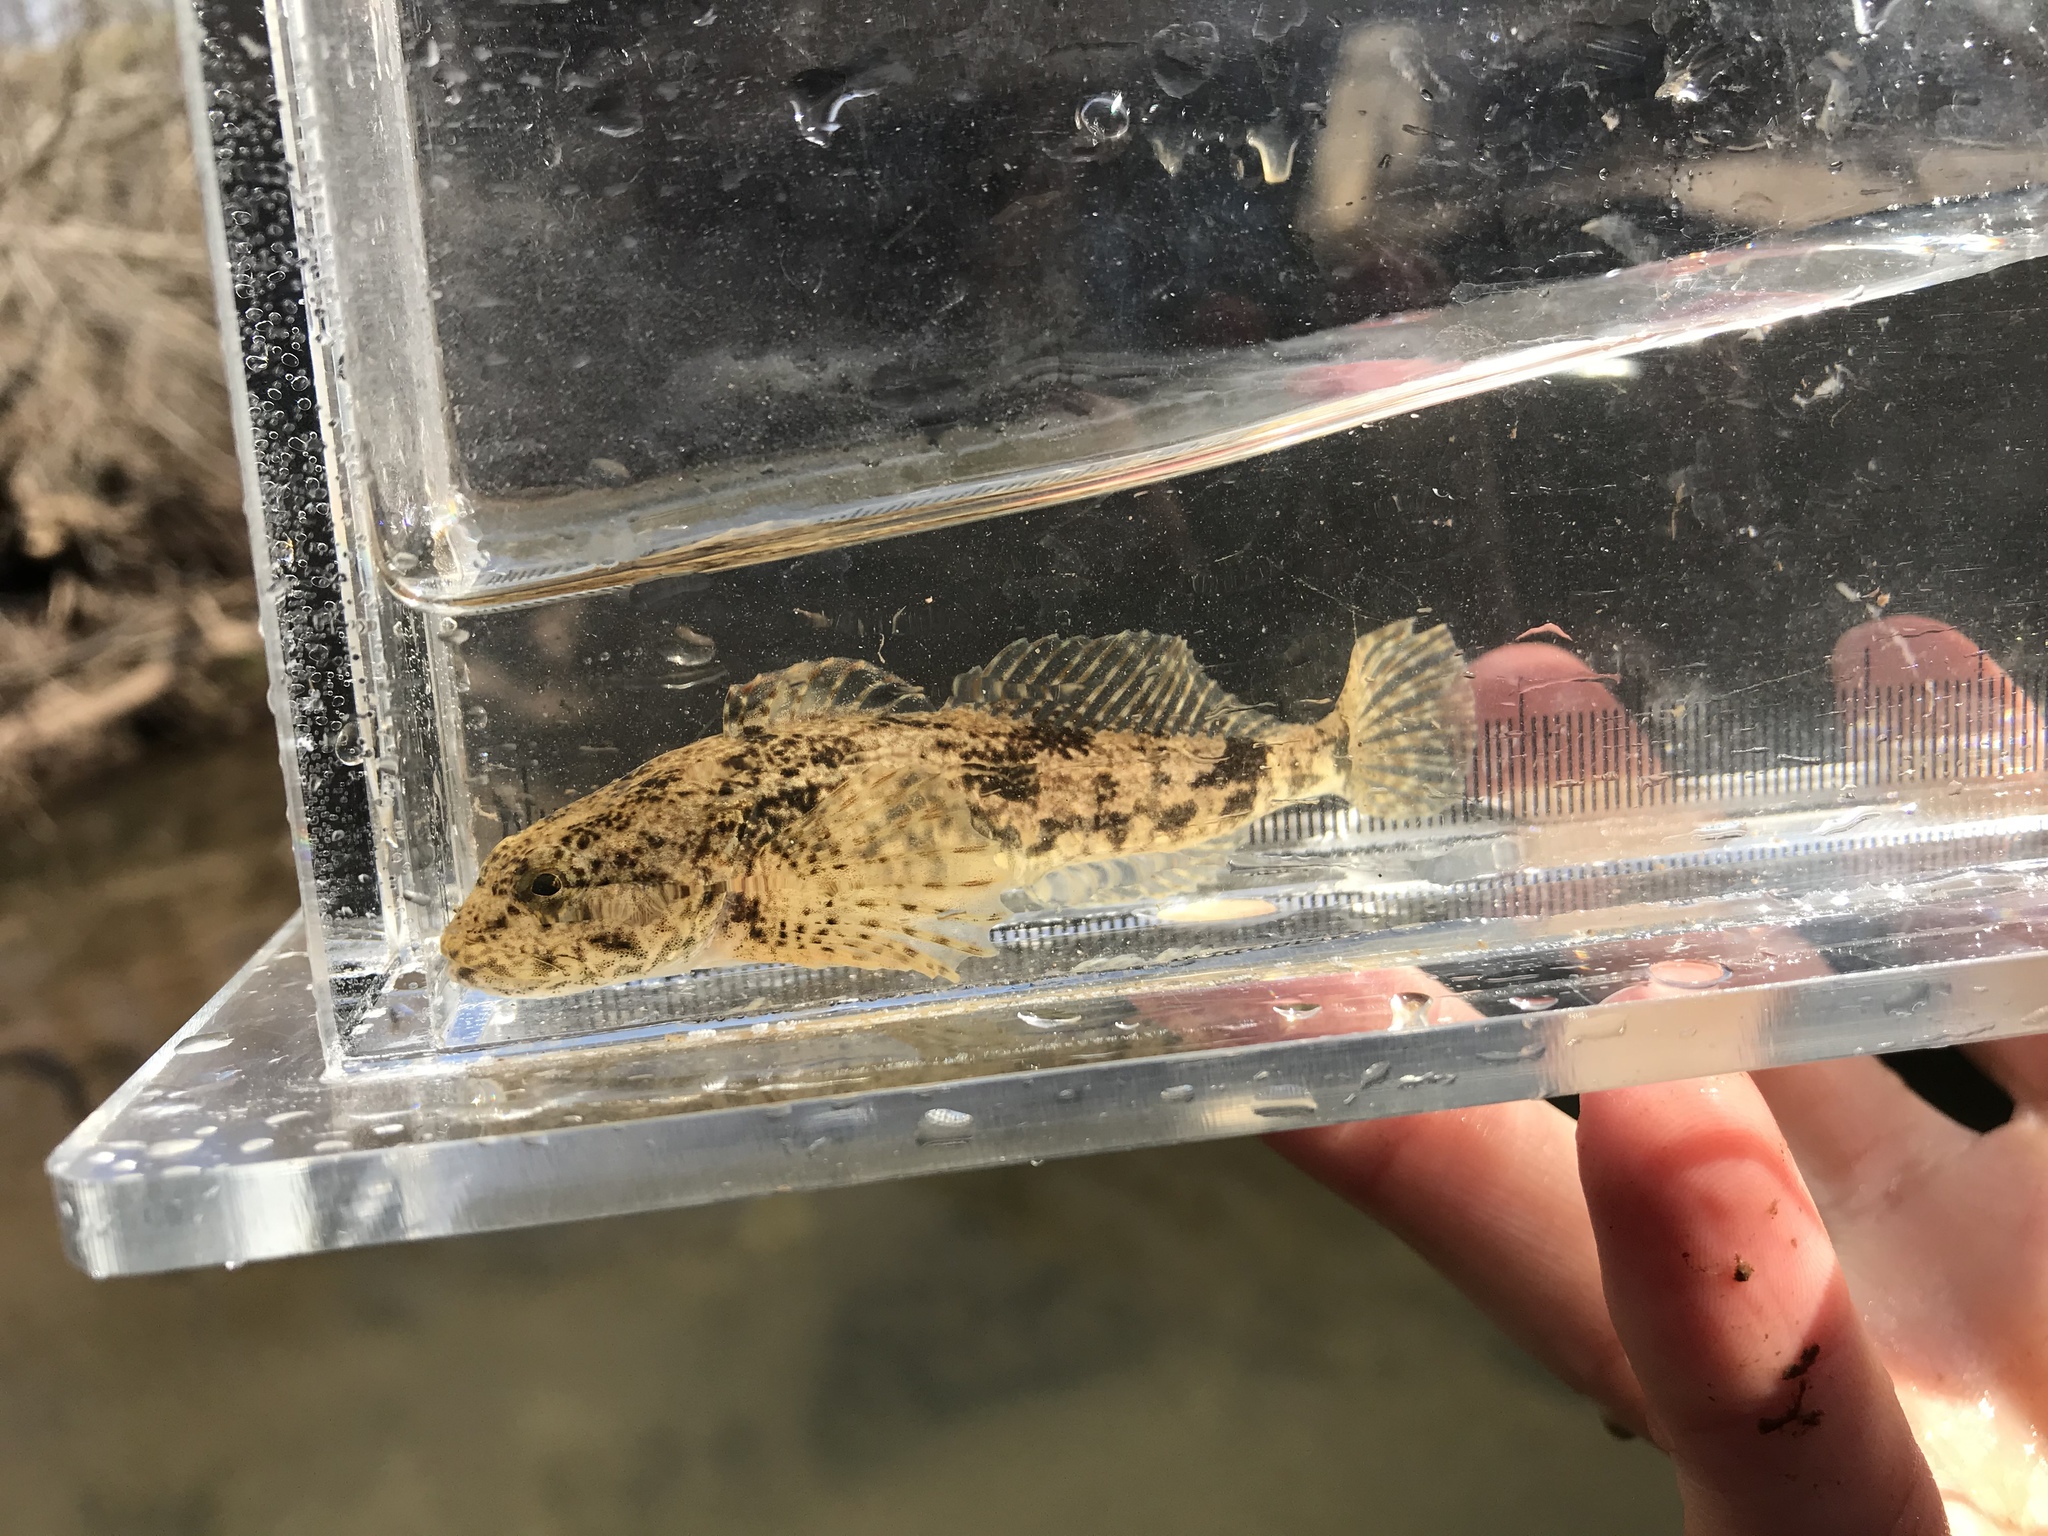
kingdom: Animalia
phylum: Chordata
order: Scorpaeniformes
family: Cottidae
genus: Cottus
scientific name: Cottus bairdii
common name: Mottled sculpin
